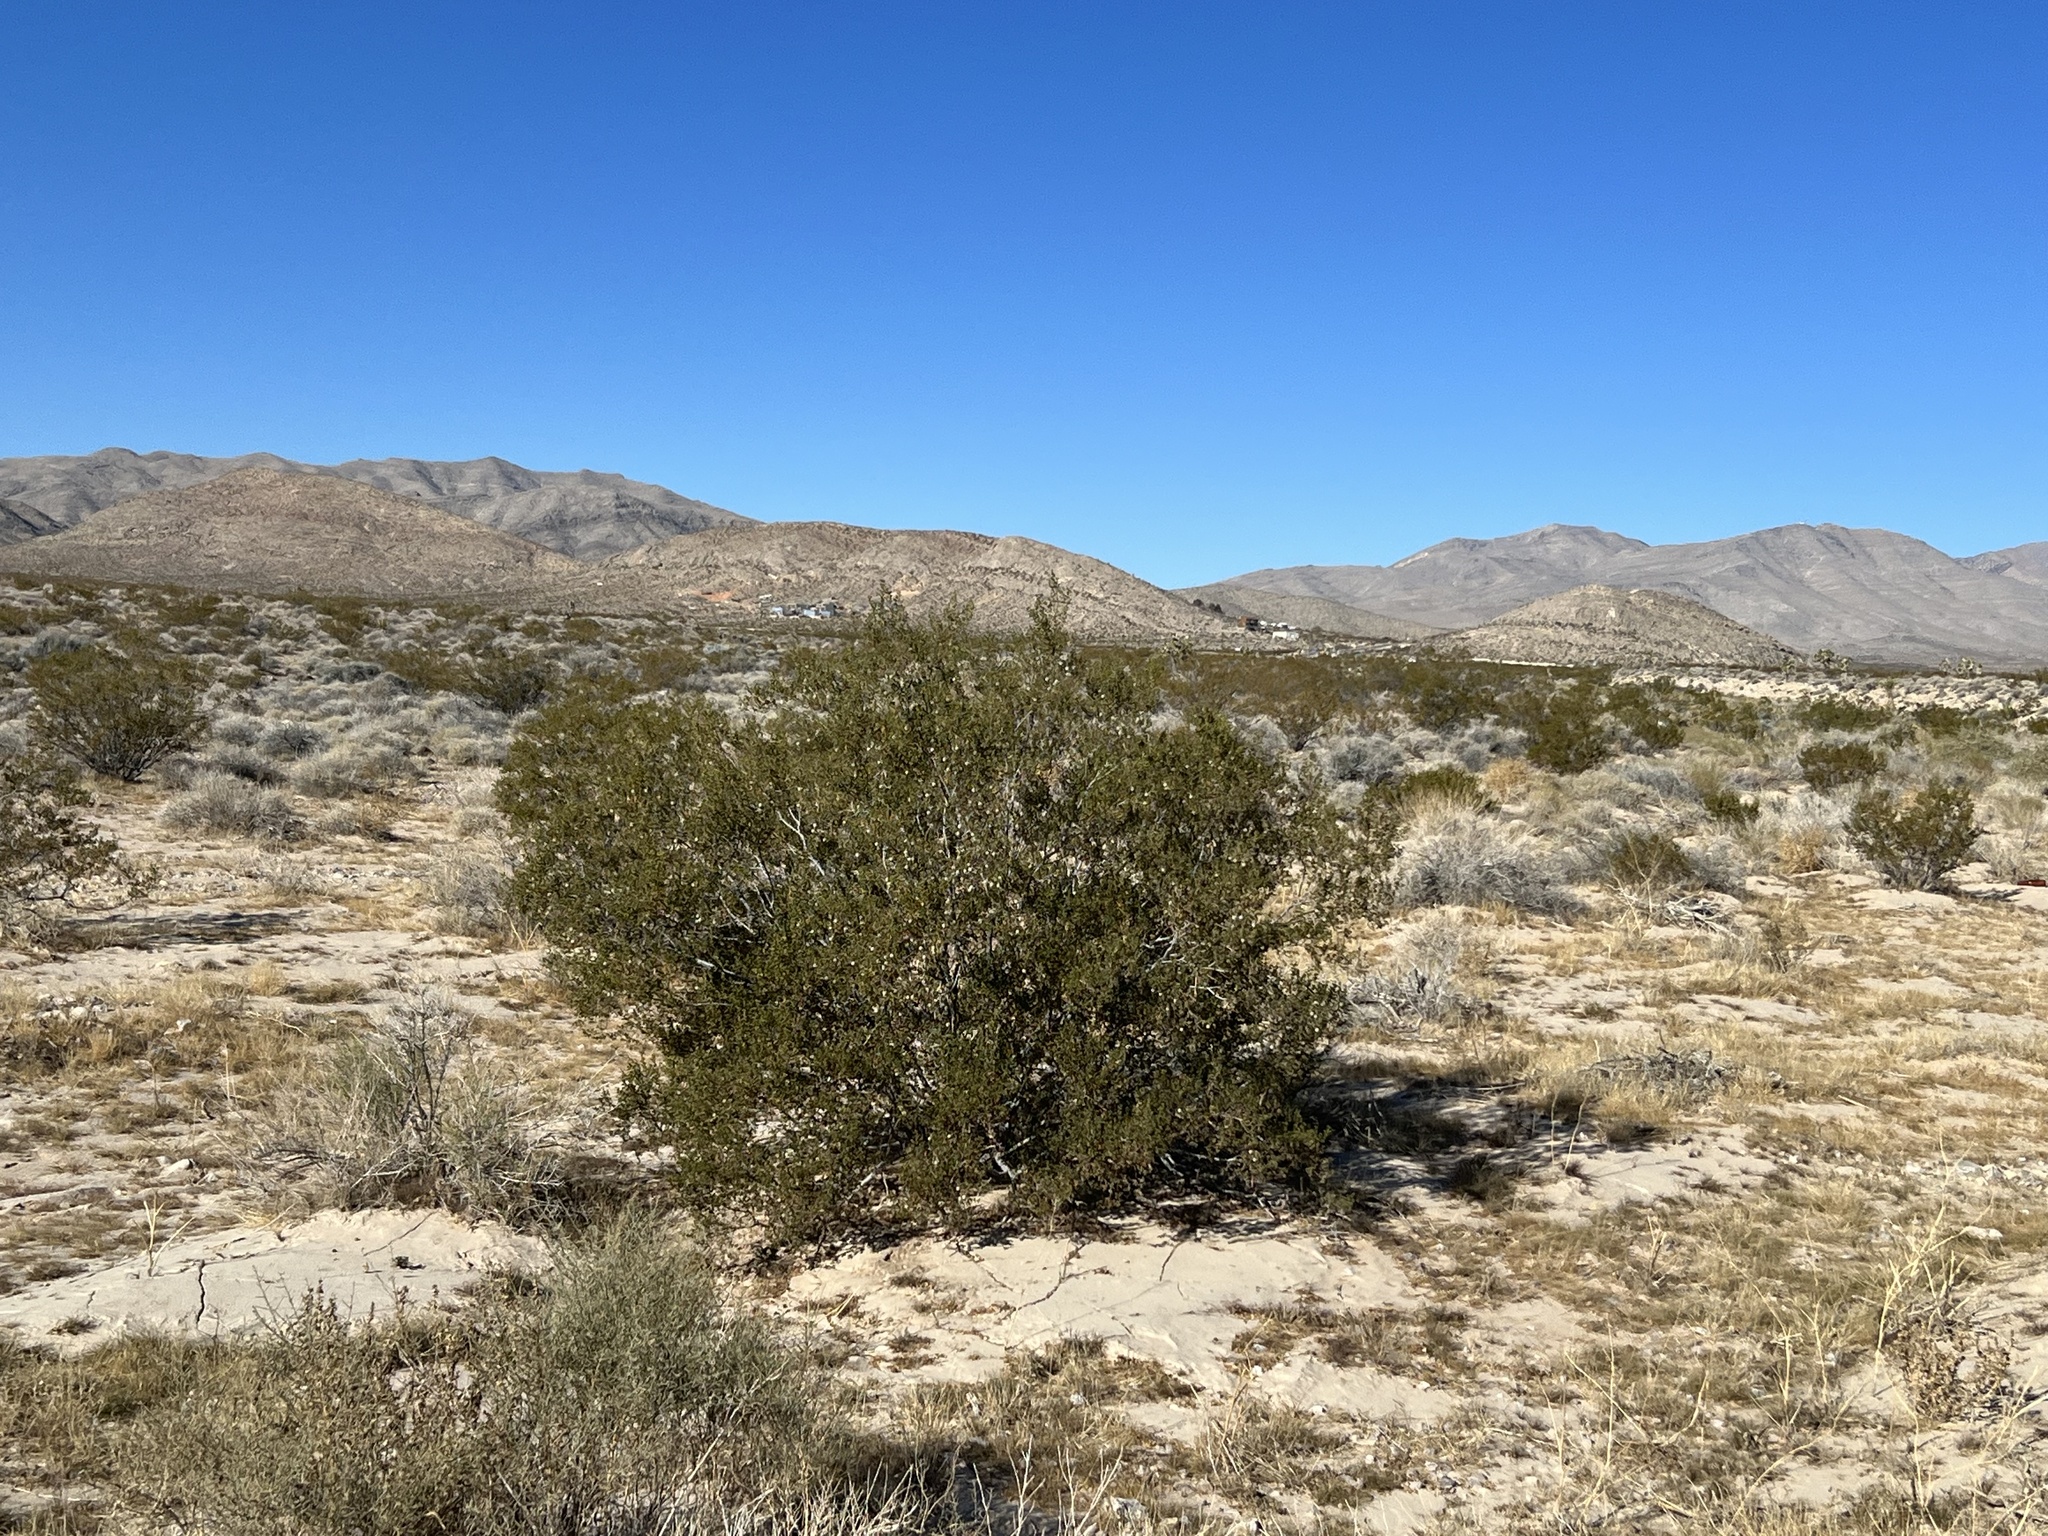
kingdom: Plantae
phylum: Tracheophyta
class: Magnoliopsida
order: Zygophyllales
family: Zygophyllaceae
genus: Larrea
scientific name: Larrea tridentata
